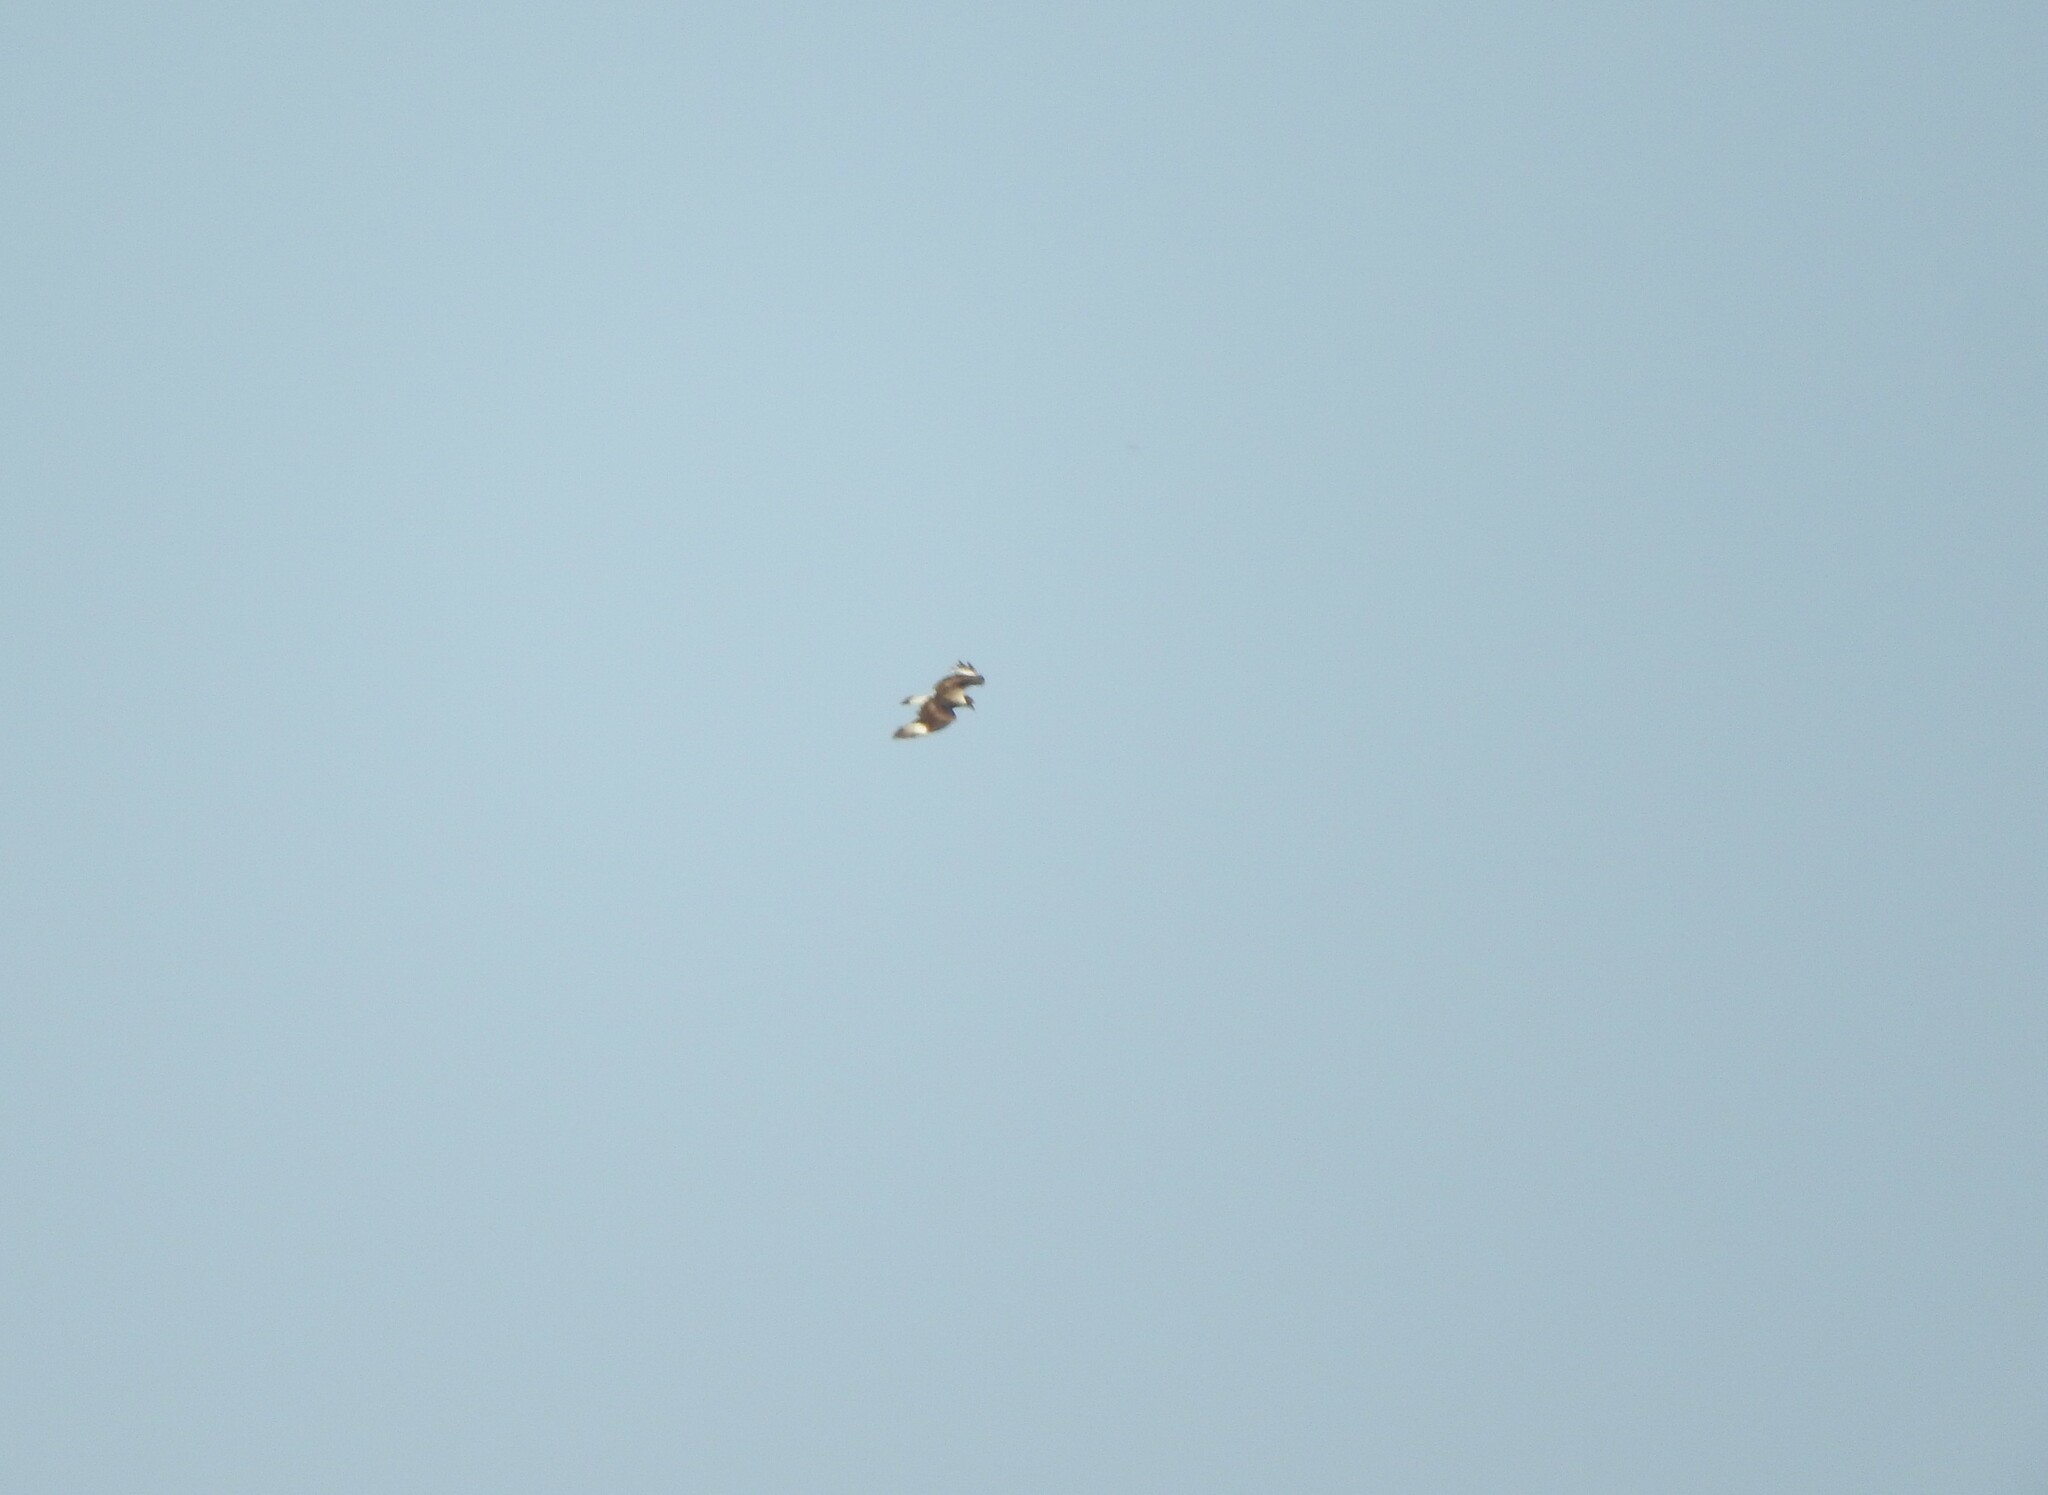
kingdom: Animalia
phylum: Chordata
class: Aves
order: Falconiformes
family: Falconidae
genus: Caracara
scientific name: Caracara plancus
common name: Southern caracara
